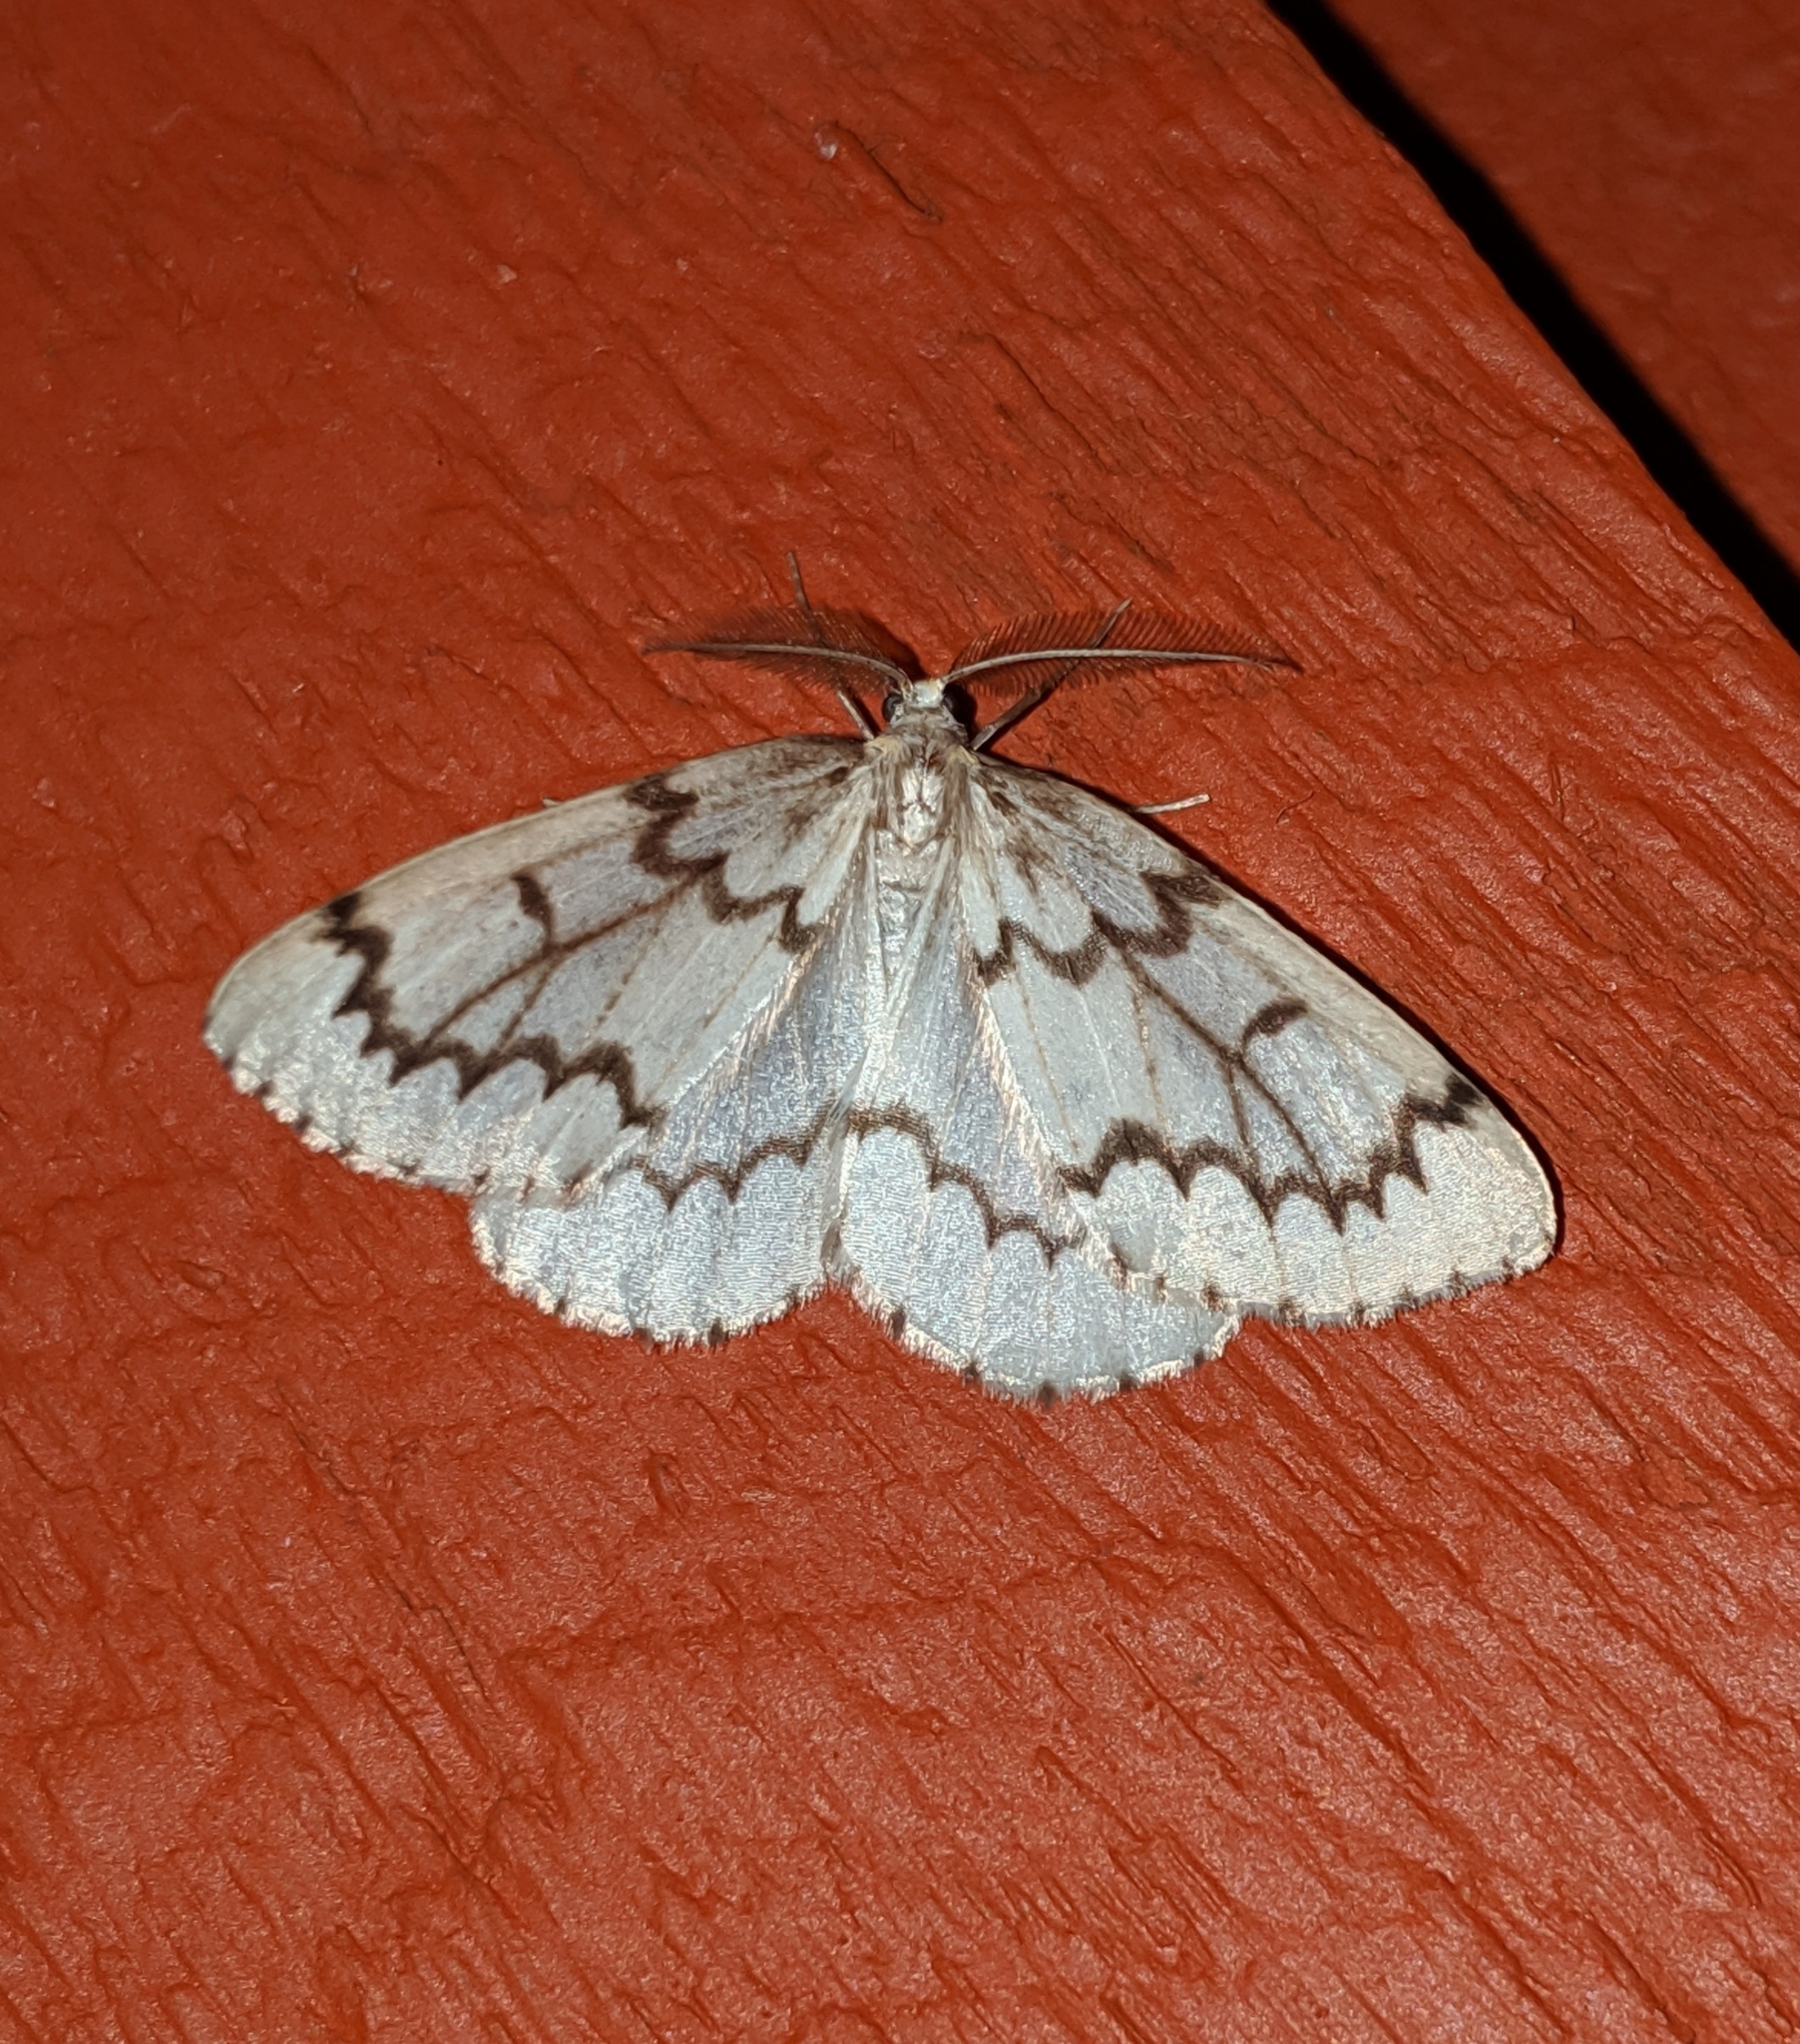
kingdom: Animalia
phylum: Arthropoda
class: Insecta
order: Lepidoptera
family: Geometridae
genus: Nepytia
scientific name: Nepytia phantasmaria
